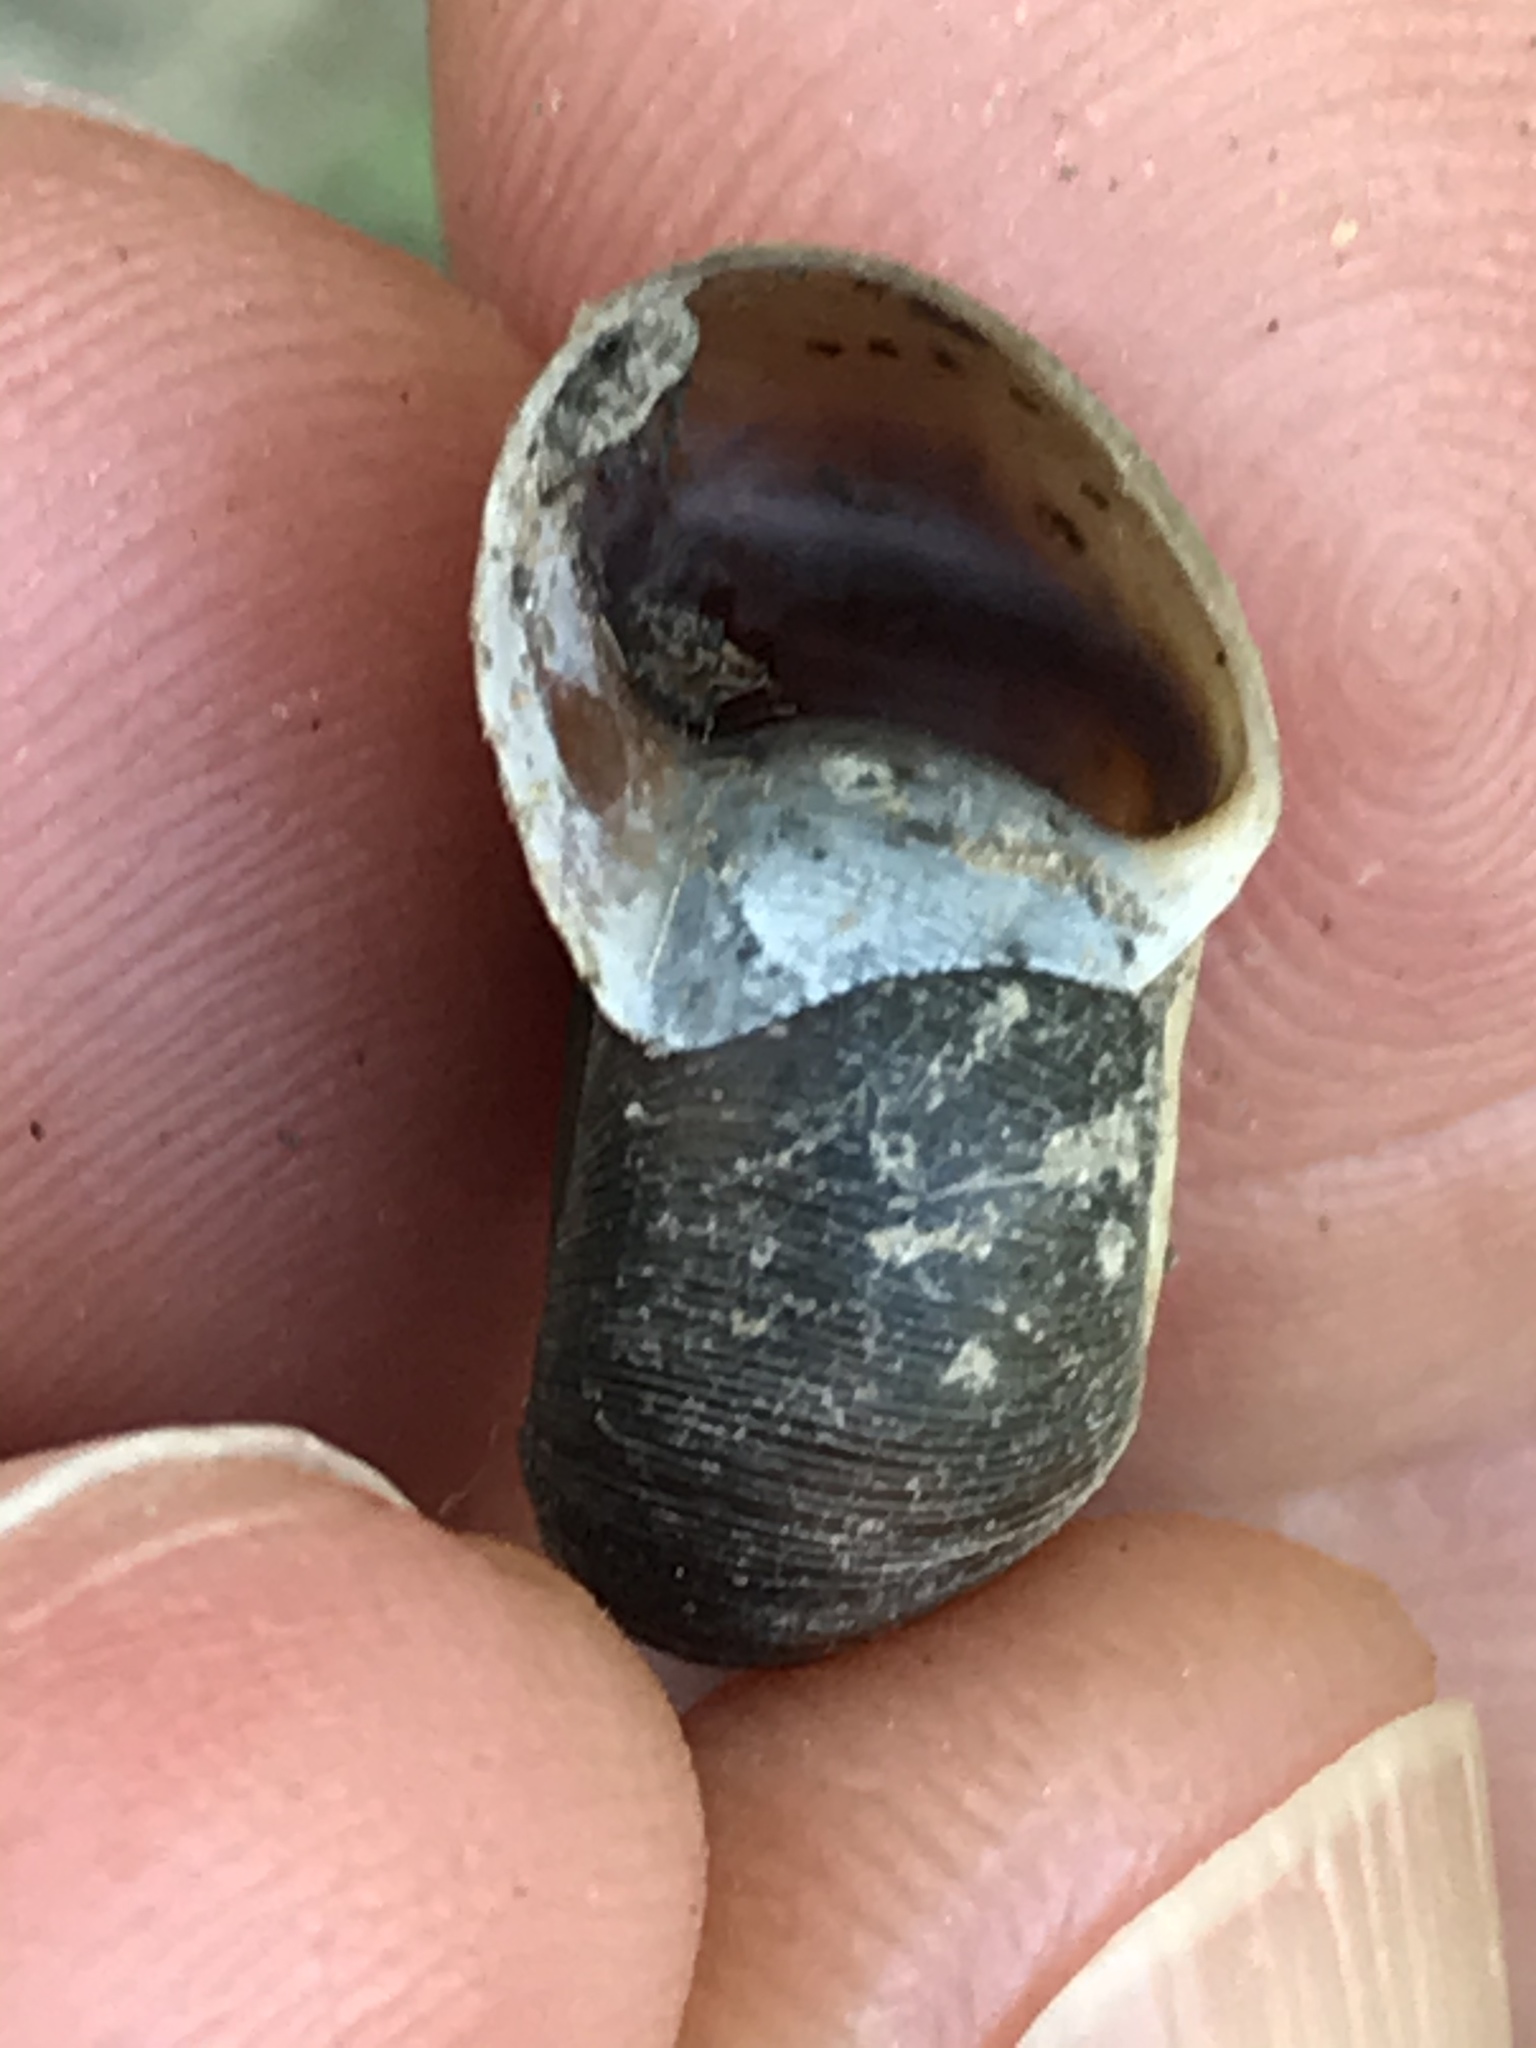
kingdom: Animalia
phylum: Mollusca
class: Gastropoda
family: Planorbidae
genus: Planorbella
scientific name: Planorbella trivolvis
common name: Marsh rams-horn
